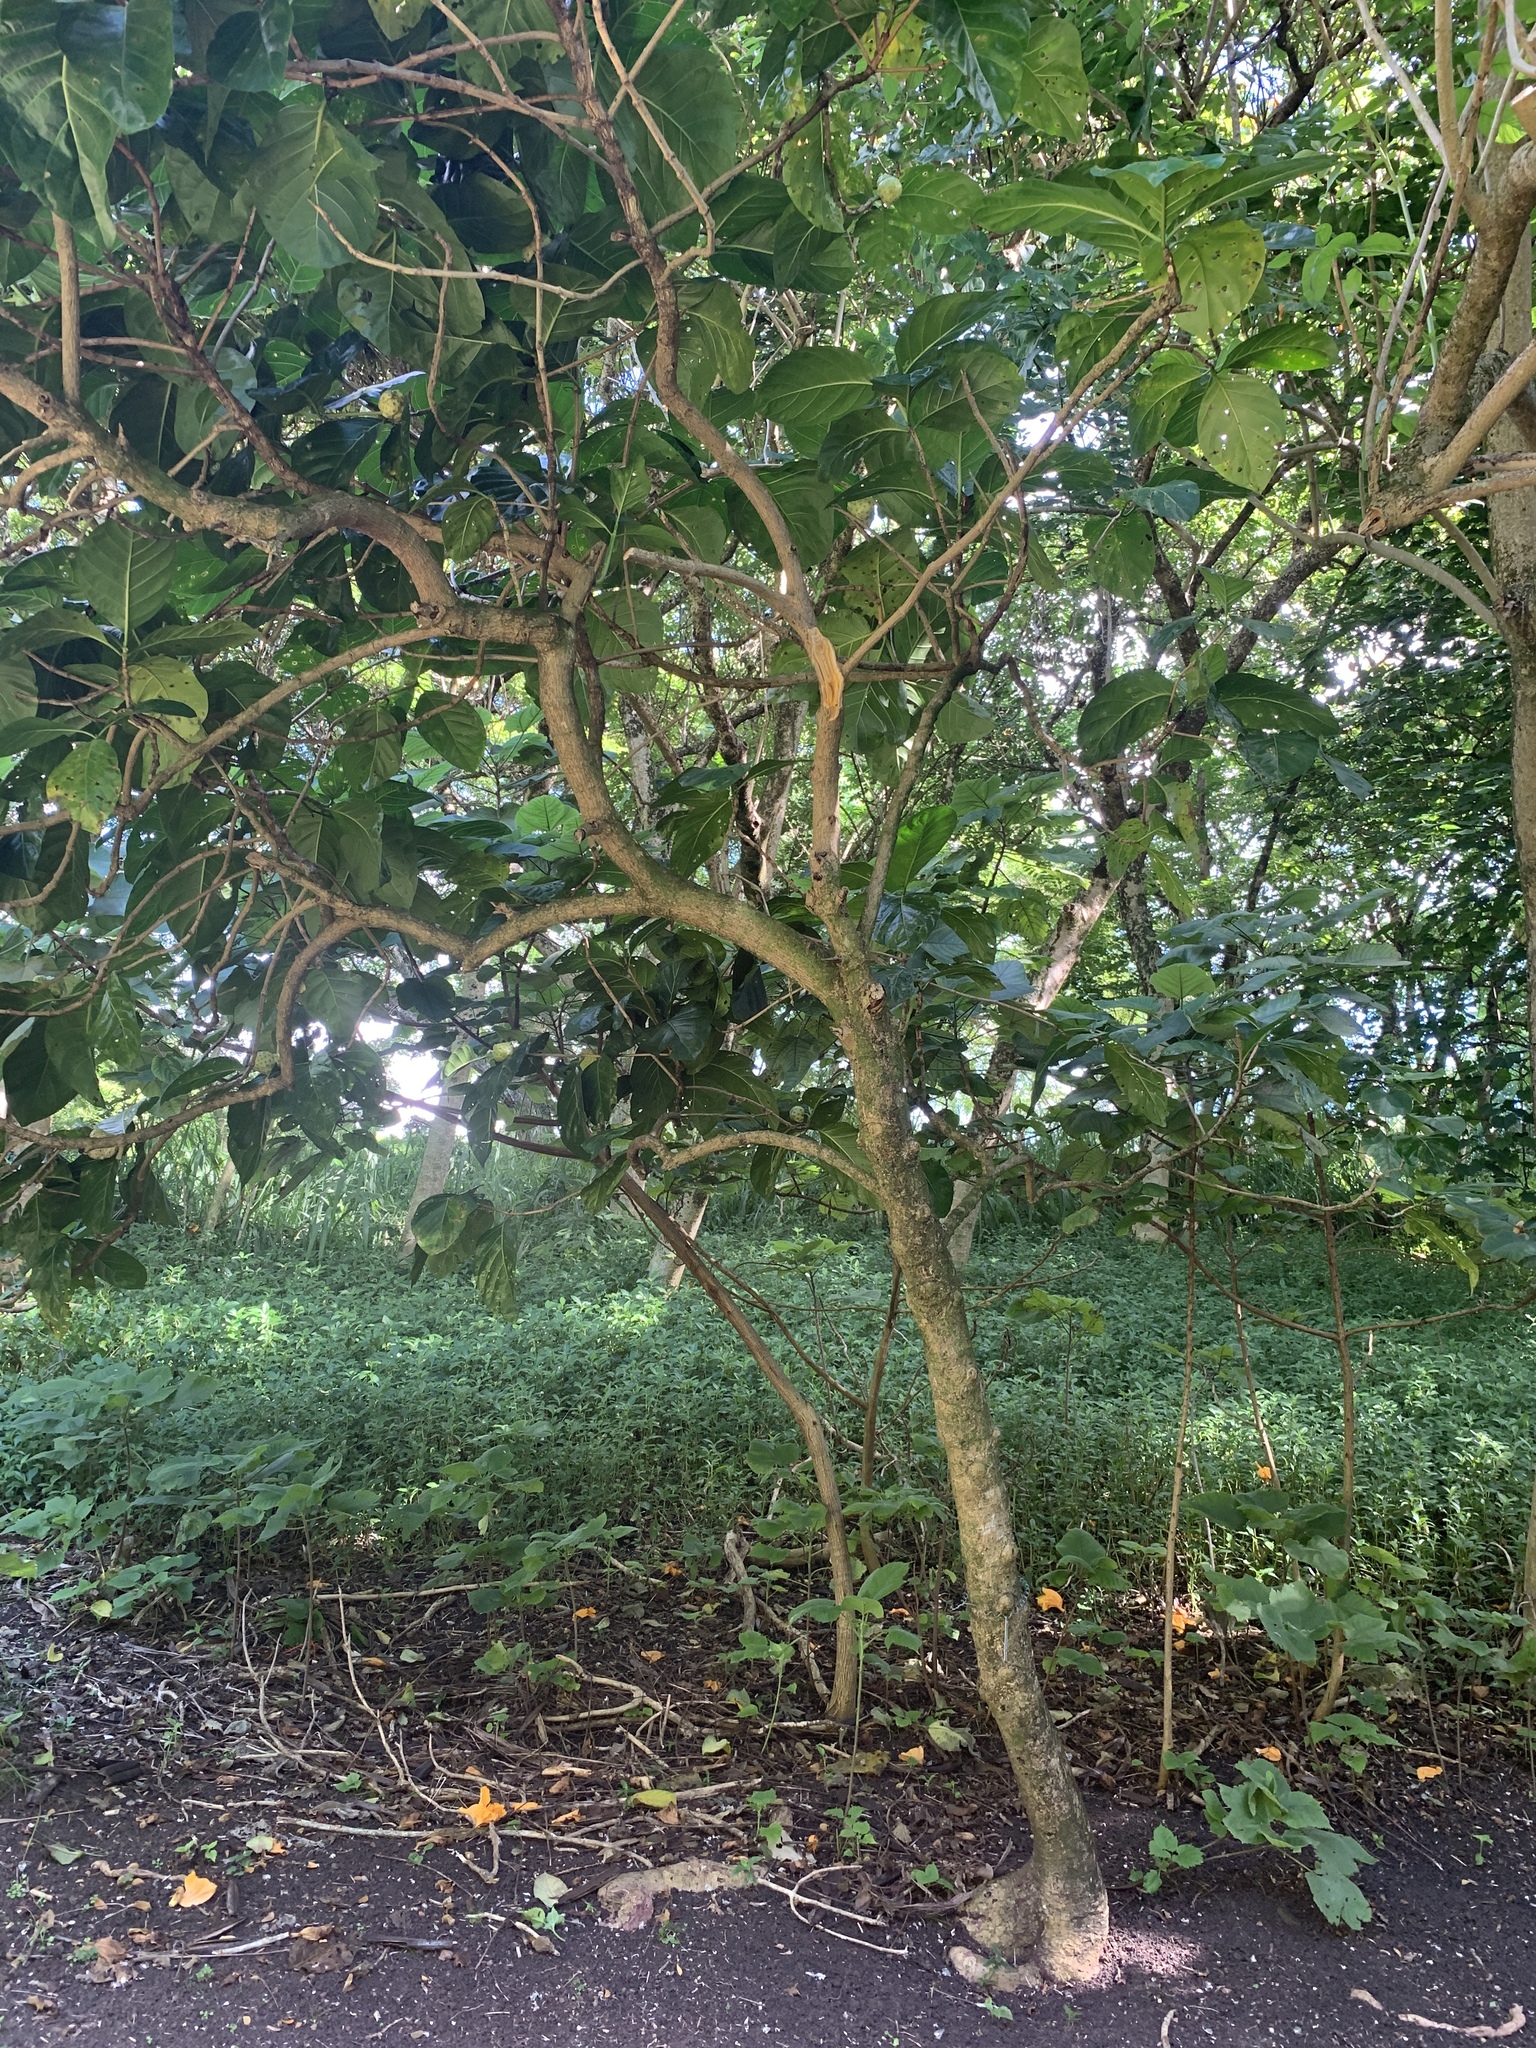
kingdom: Plantae
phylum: Tracheophyta
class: Magnoliopsida
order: Gentianales
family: Rubiaceae
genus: Morinda
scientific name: Morinda citrifolia
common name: Indian-mulberry
